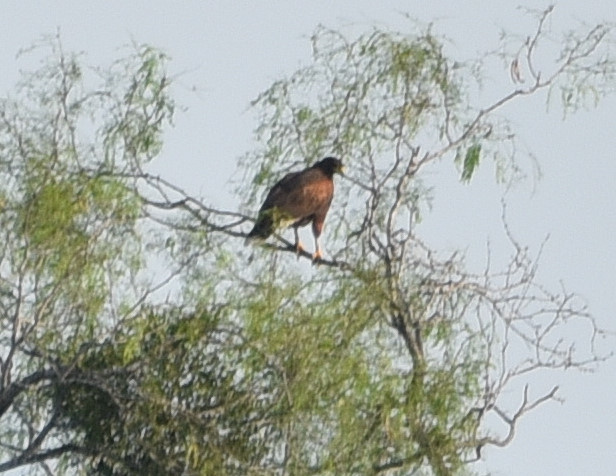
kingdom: Animalia
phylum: Chordata
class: Aves
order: Accipitriformes
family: Accipitridae
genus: Parabuteo
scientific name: Parabuteo unicinctus
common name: Harris's hawk
